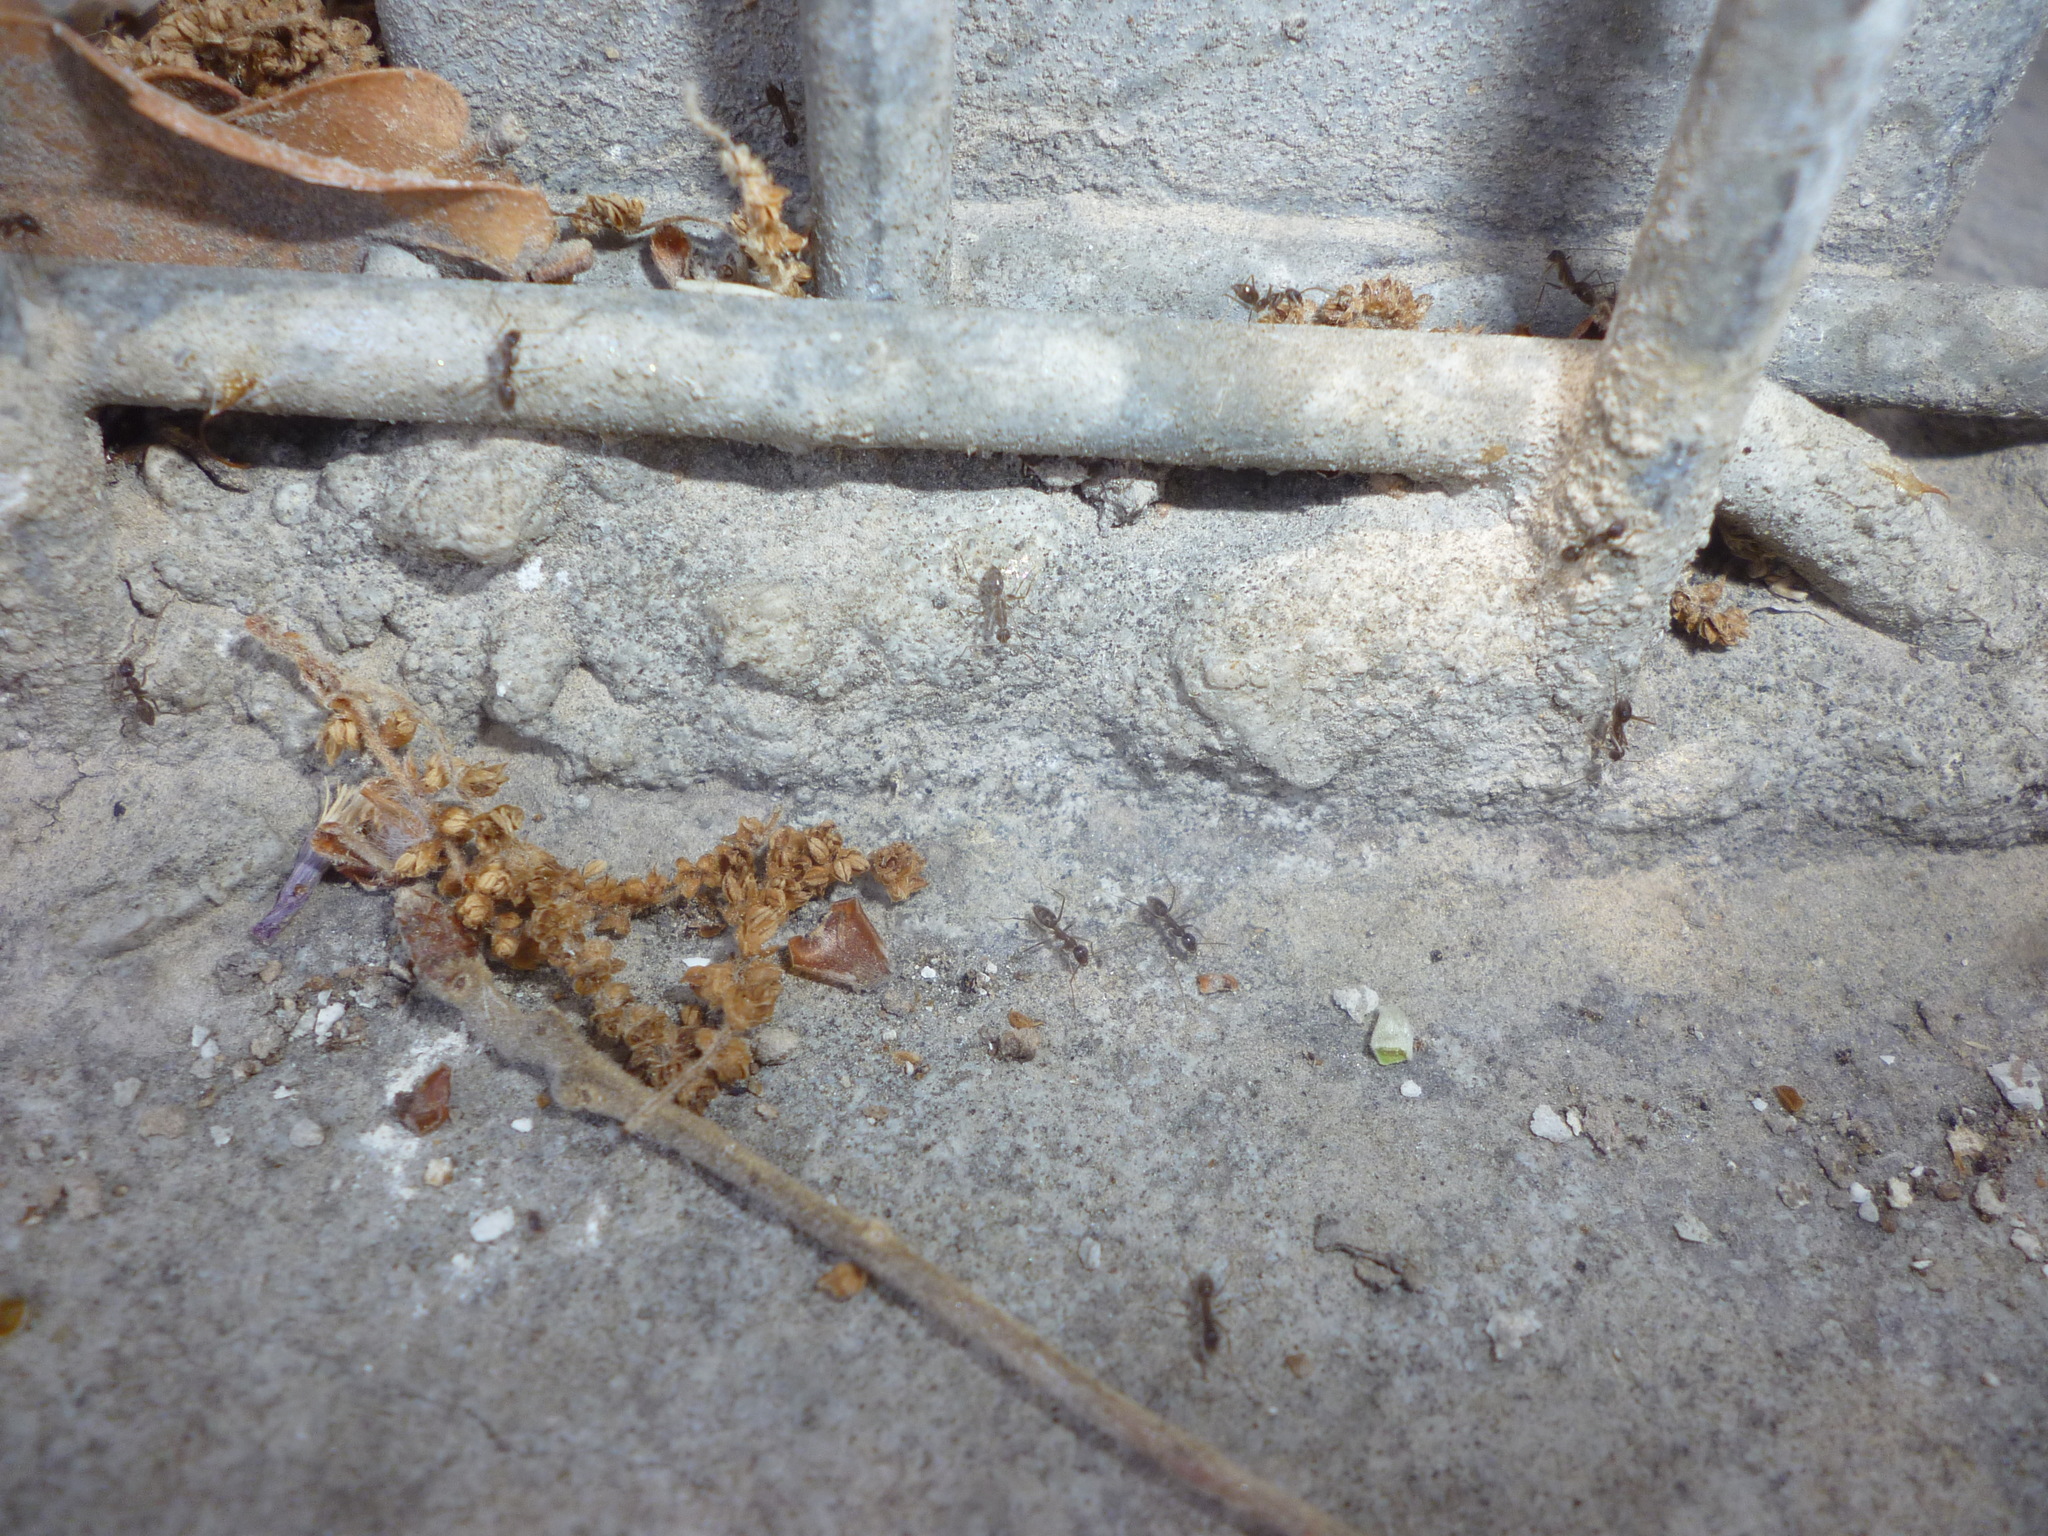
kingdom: Animalia
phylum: Arthropoda
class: Insecta
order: Hymenoptera
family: Formicidae
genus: Paratrechina
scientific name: Paratrechina longicornis
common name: Longhorned crazy ant
